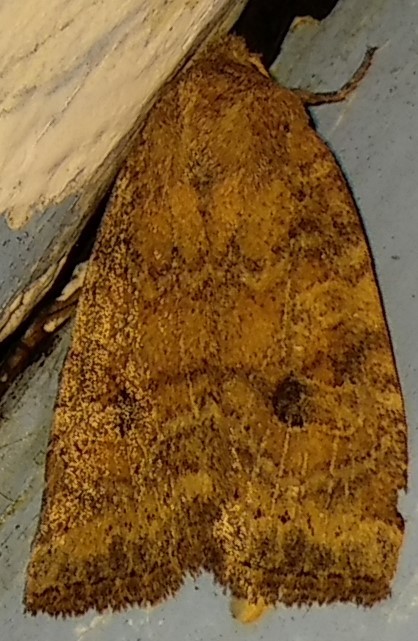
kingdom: Animalia
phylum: Arthropoda
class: Insecta
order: Lepidoptera
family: Noctuidae
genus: Anathix
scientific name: Anathix puta
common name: Puta sallow
